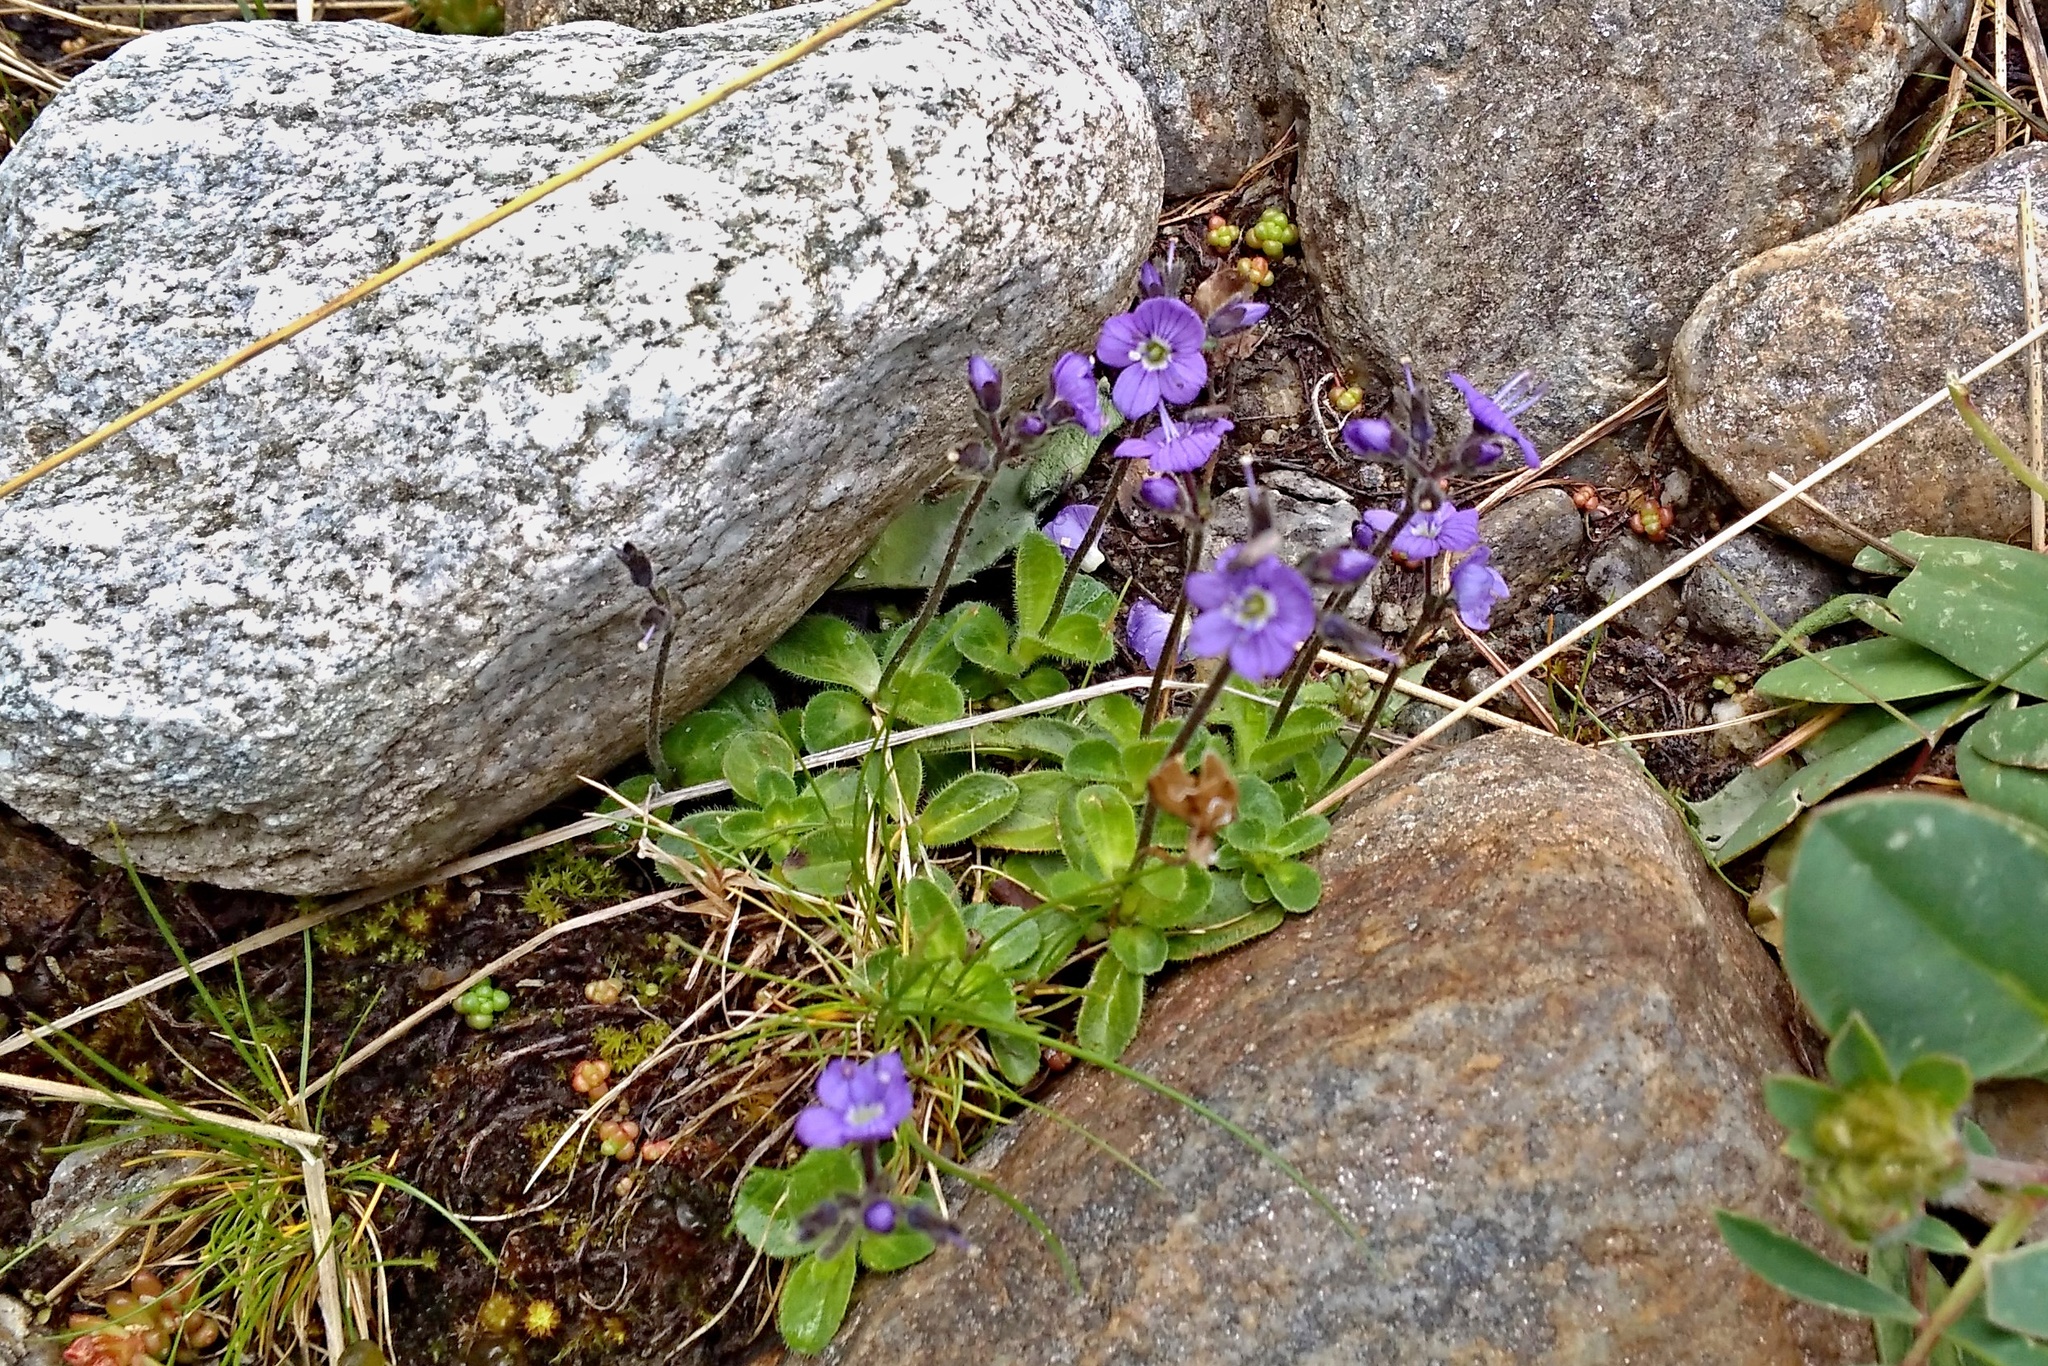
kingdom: Plantae
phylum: Tracheophyta
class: Magnoliopsida
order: Lamiales
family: Plantaginaceae
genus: Veronica
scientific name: Veronica aphylla
